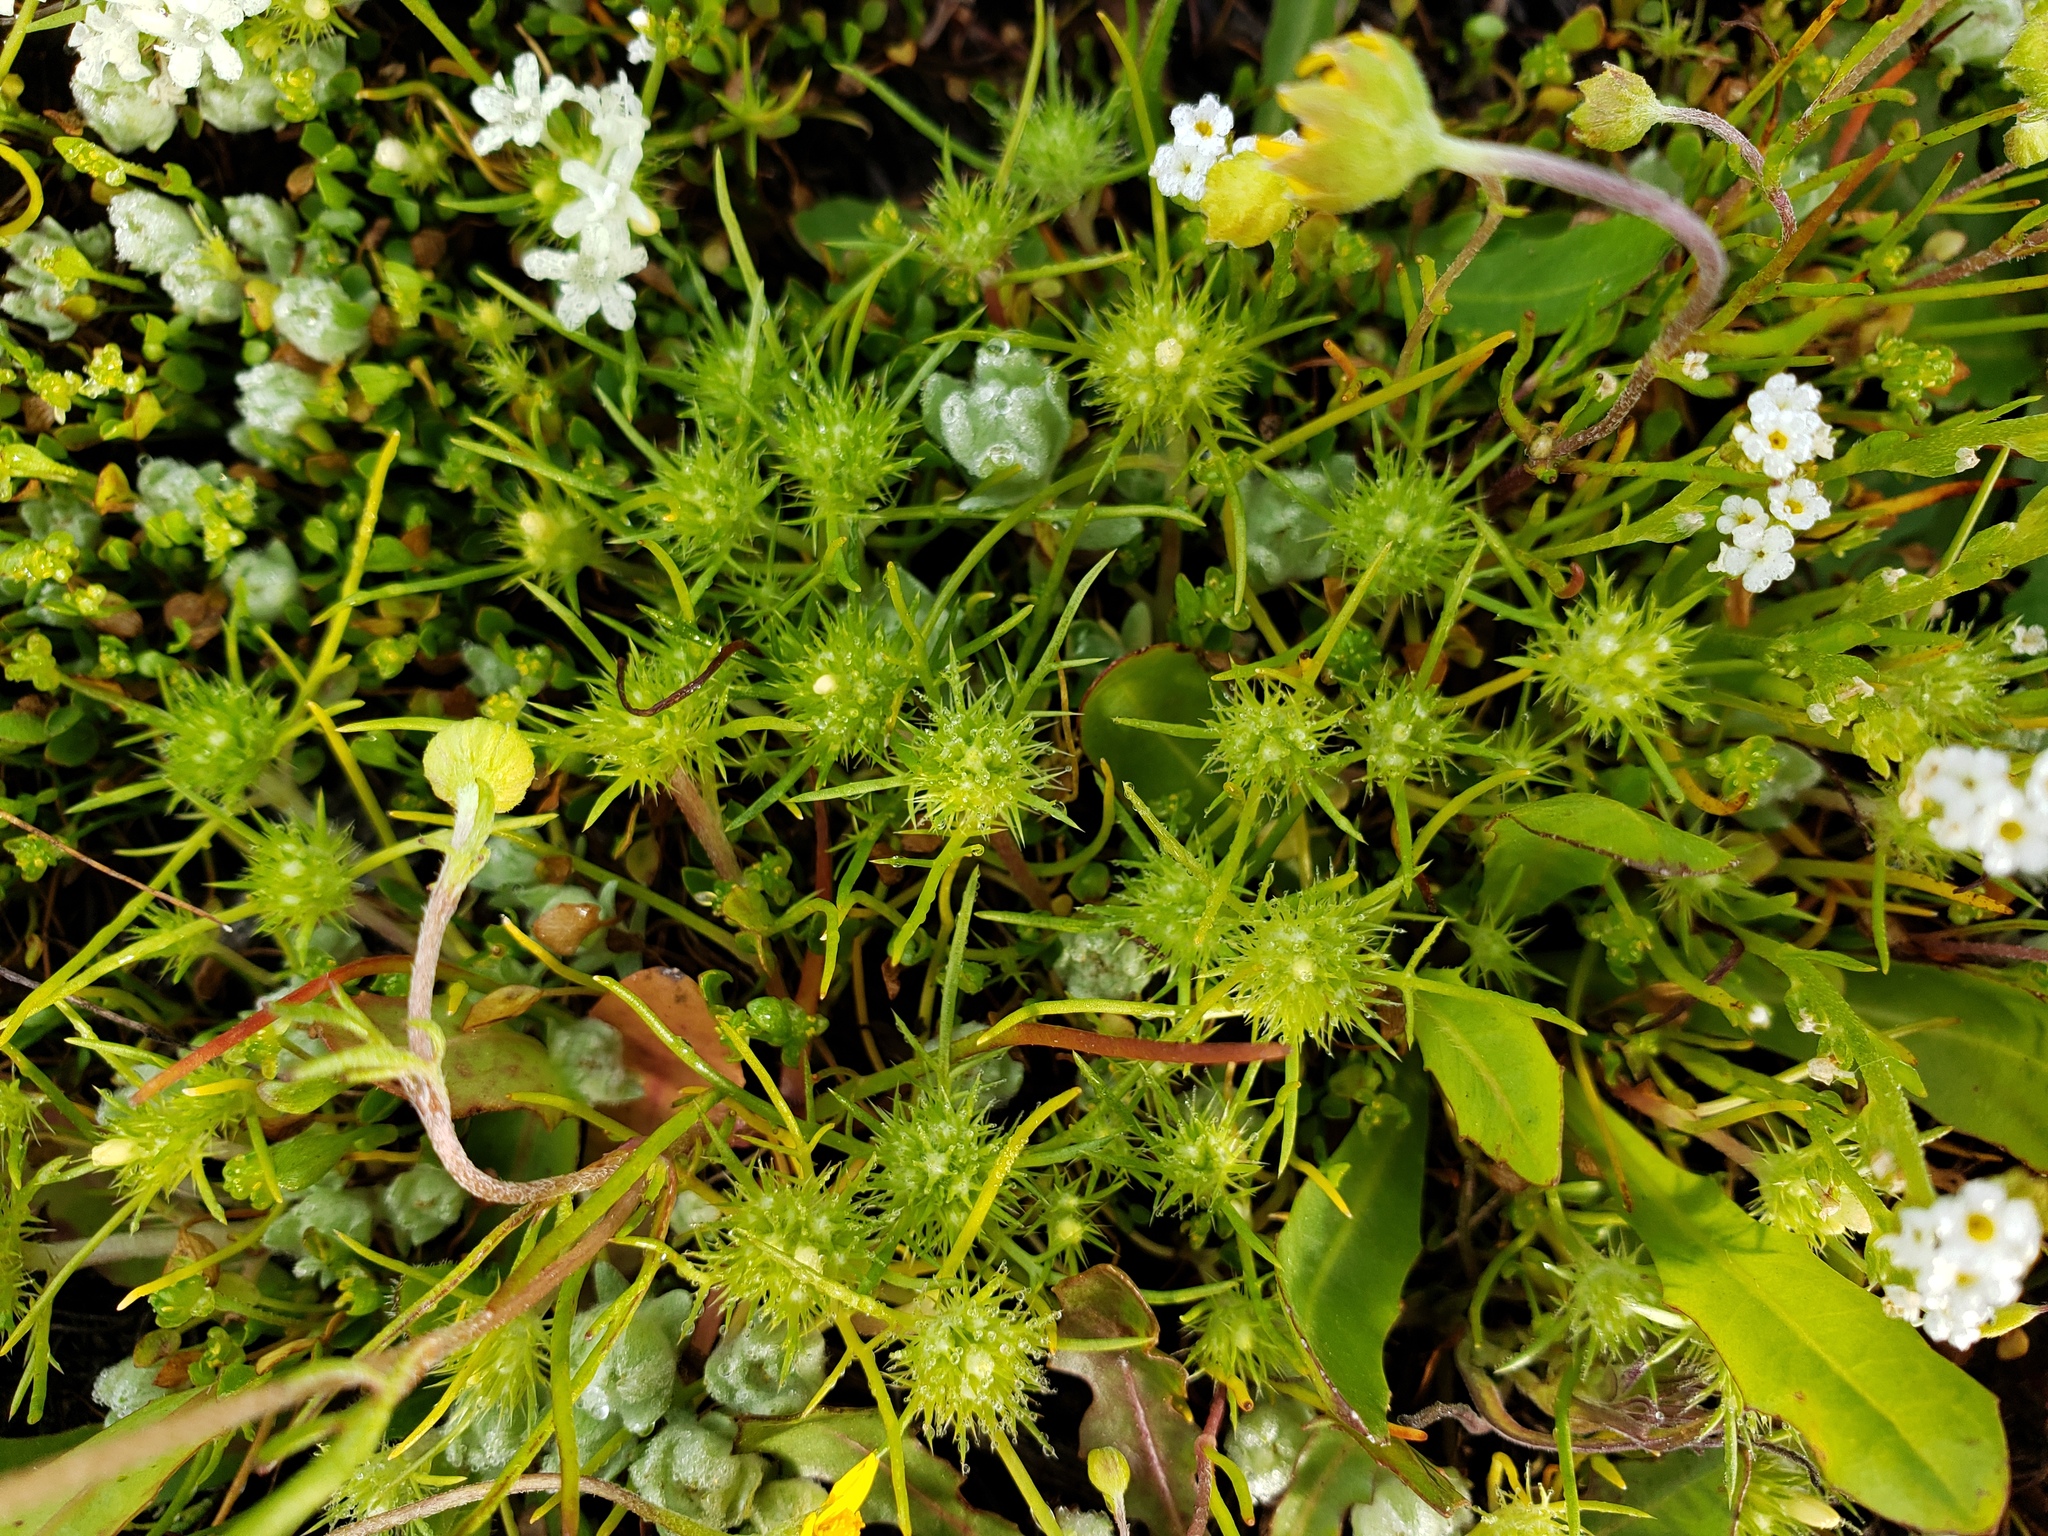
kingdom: Plantae
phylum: Tracheophyta
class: Magnoliopsida
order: Ericales
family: Polemoniaceae
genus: Navarretia
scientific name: Navarretia leucocephala
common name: White-flowered navarretia
